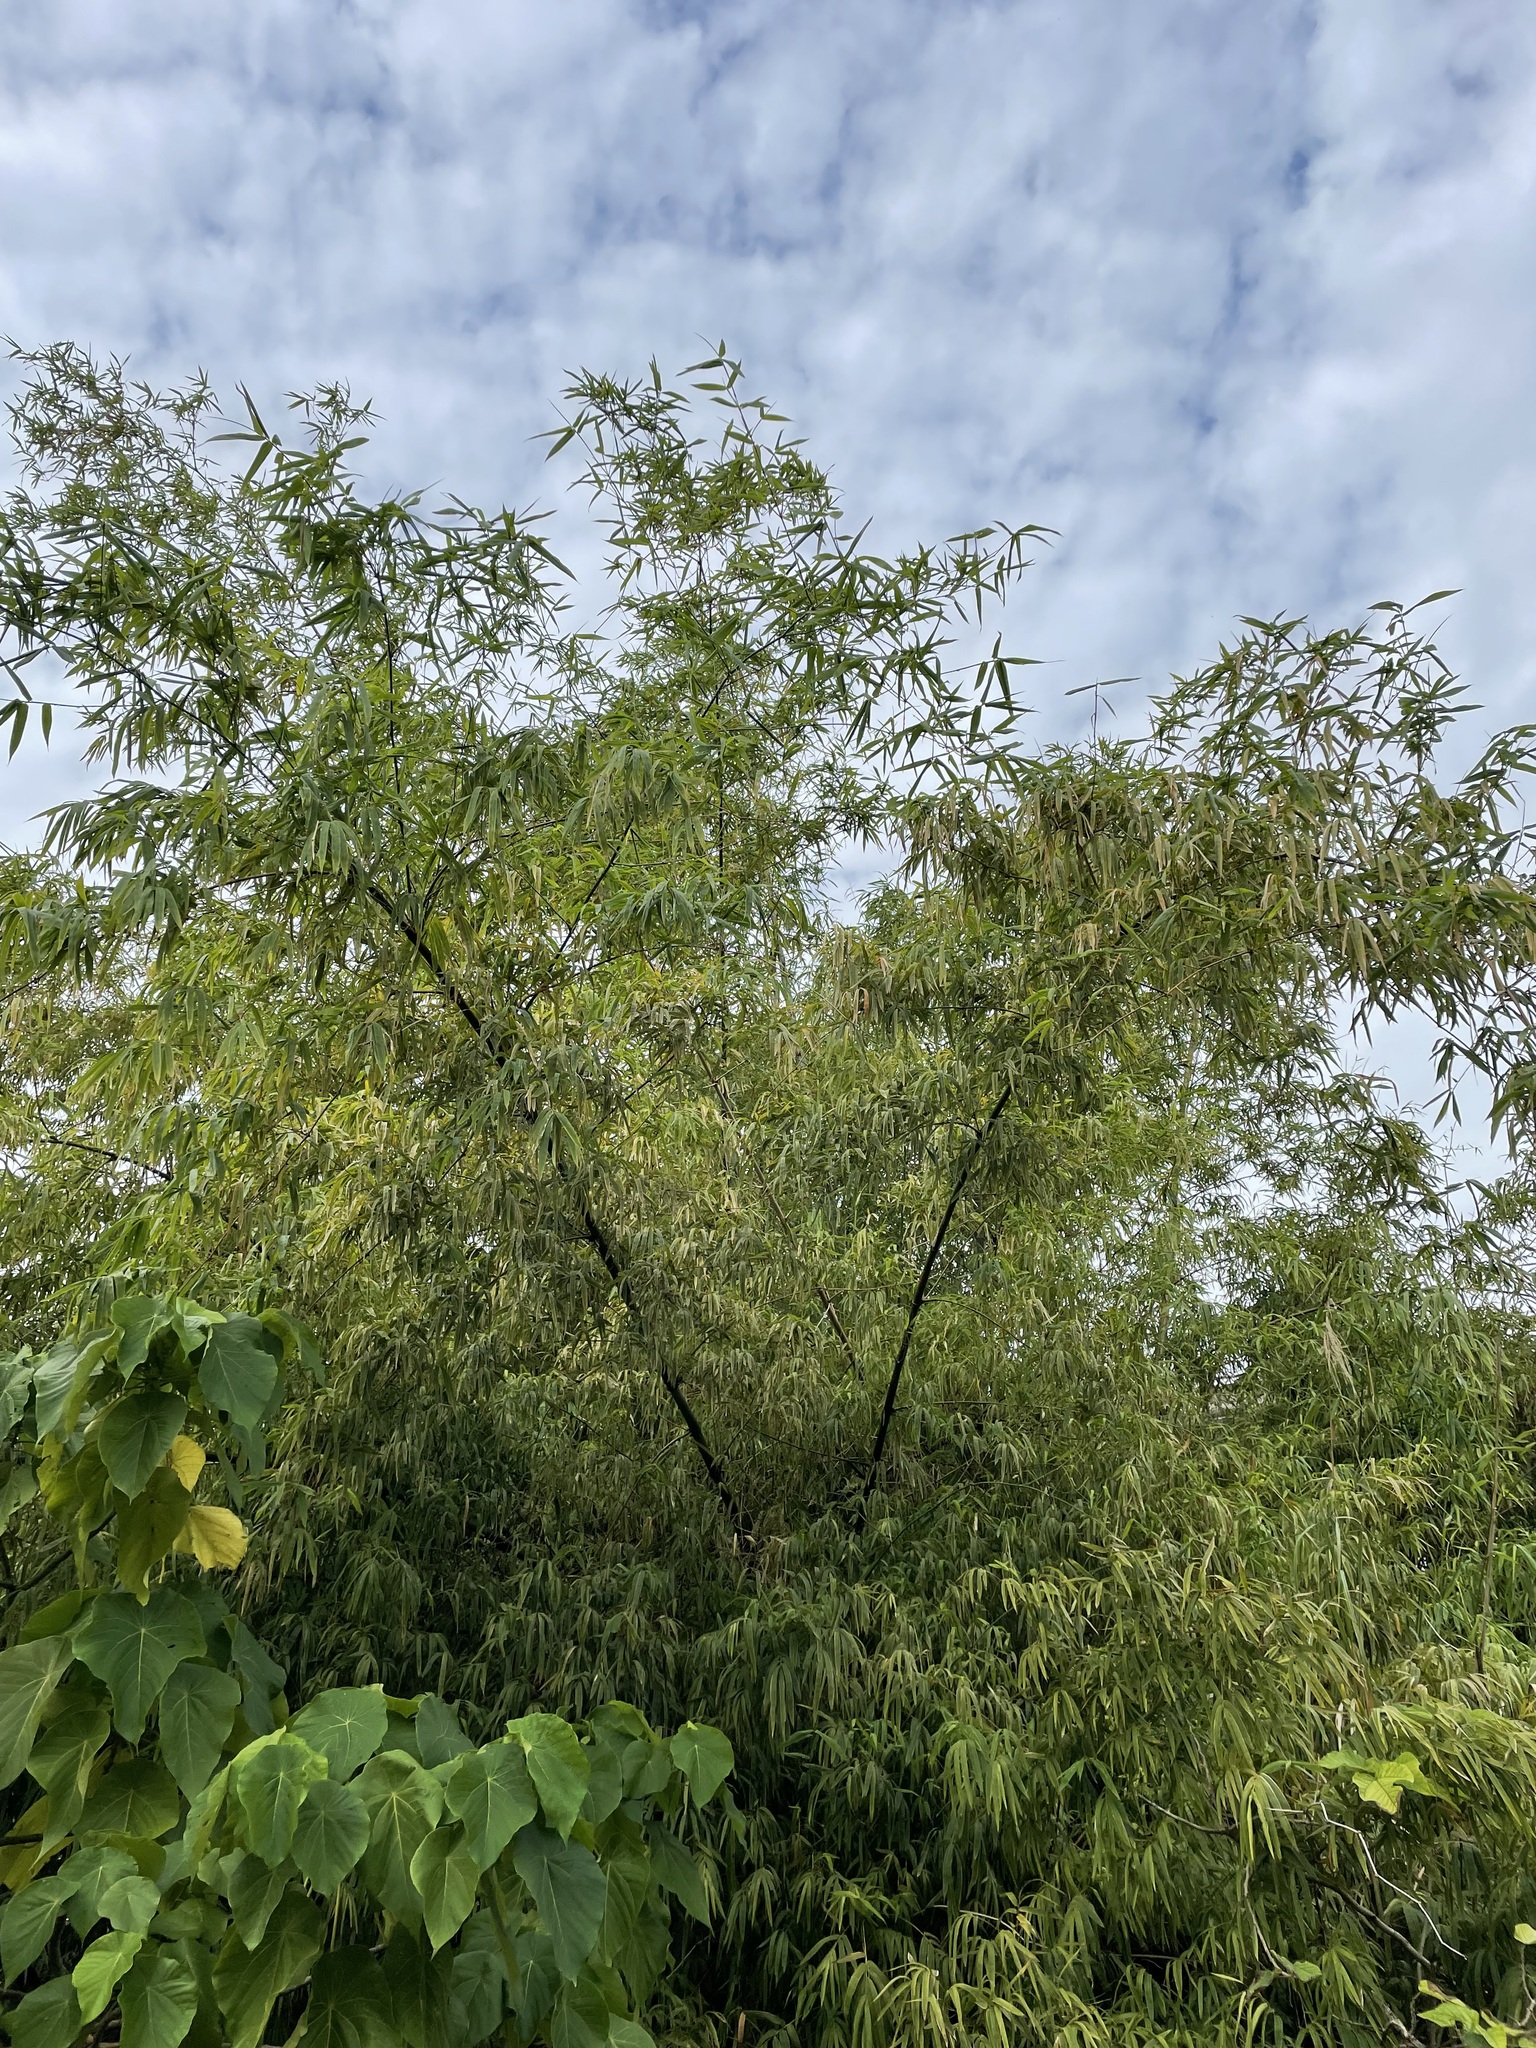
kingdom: Plantae
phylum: Tracheophyta
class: Liliopsida
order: Poales
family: Poaceae
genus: Bambusa
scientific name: Bambusa spinosa
